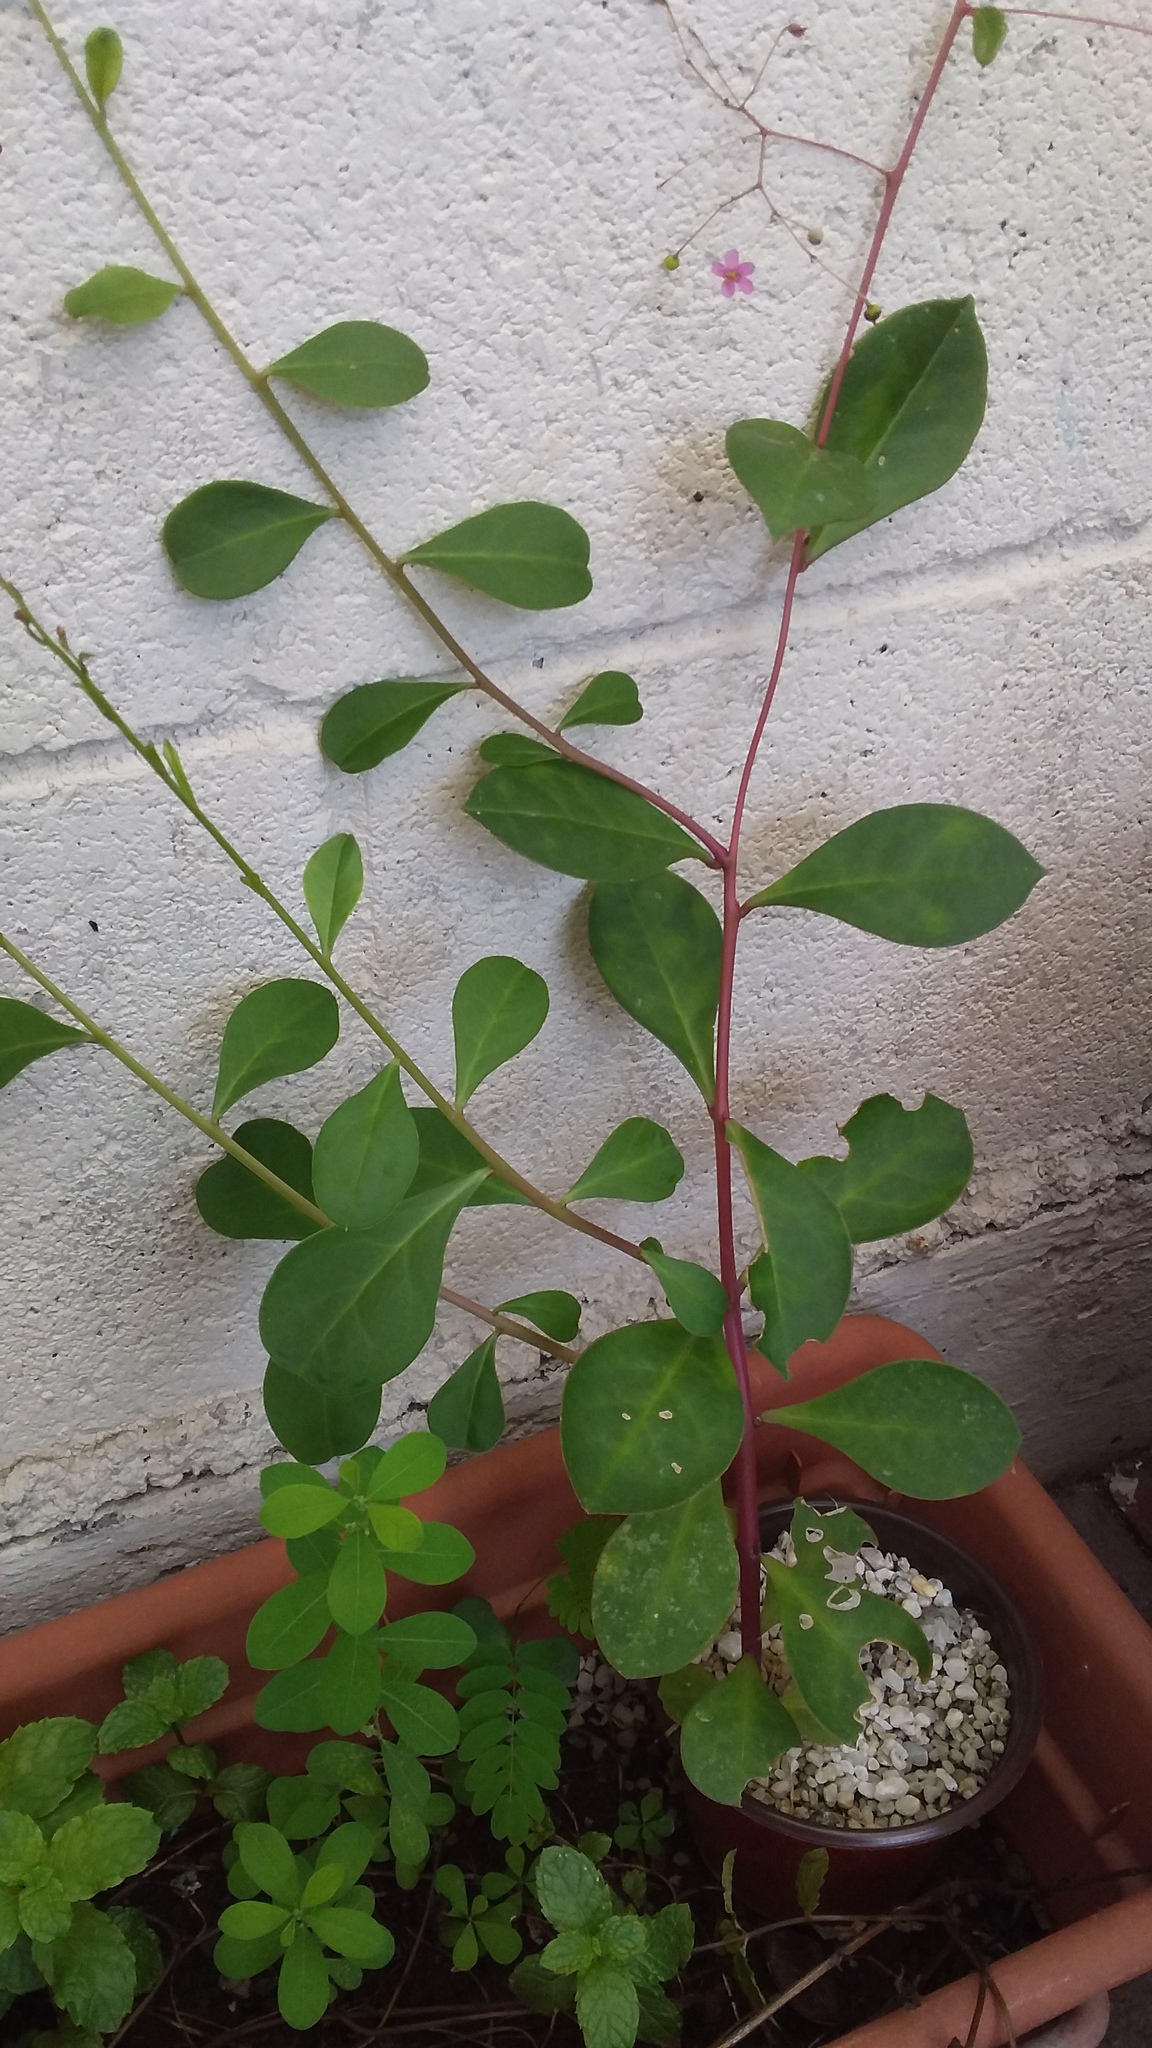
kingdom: Plantae
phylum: Tracheophyta
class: Magnoliopsida
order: Caryophyllales
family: Talinaceae
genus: Talinum
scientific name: Talinum paniculatum
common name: Jewels of opar
